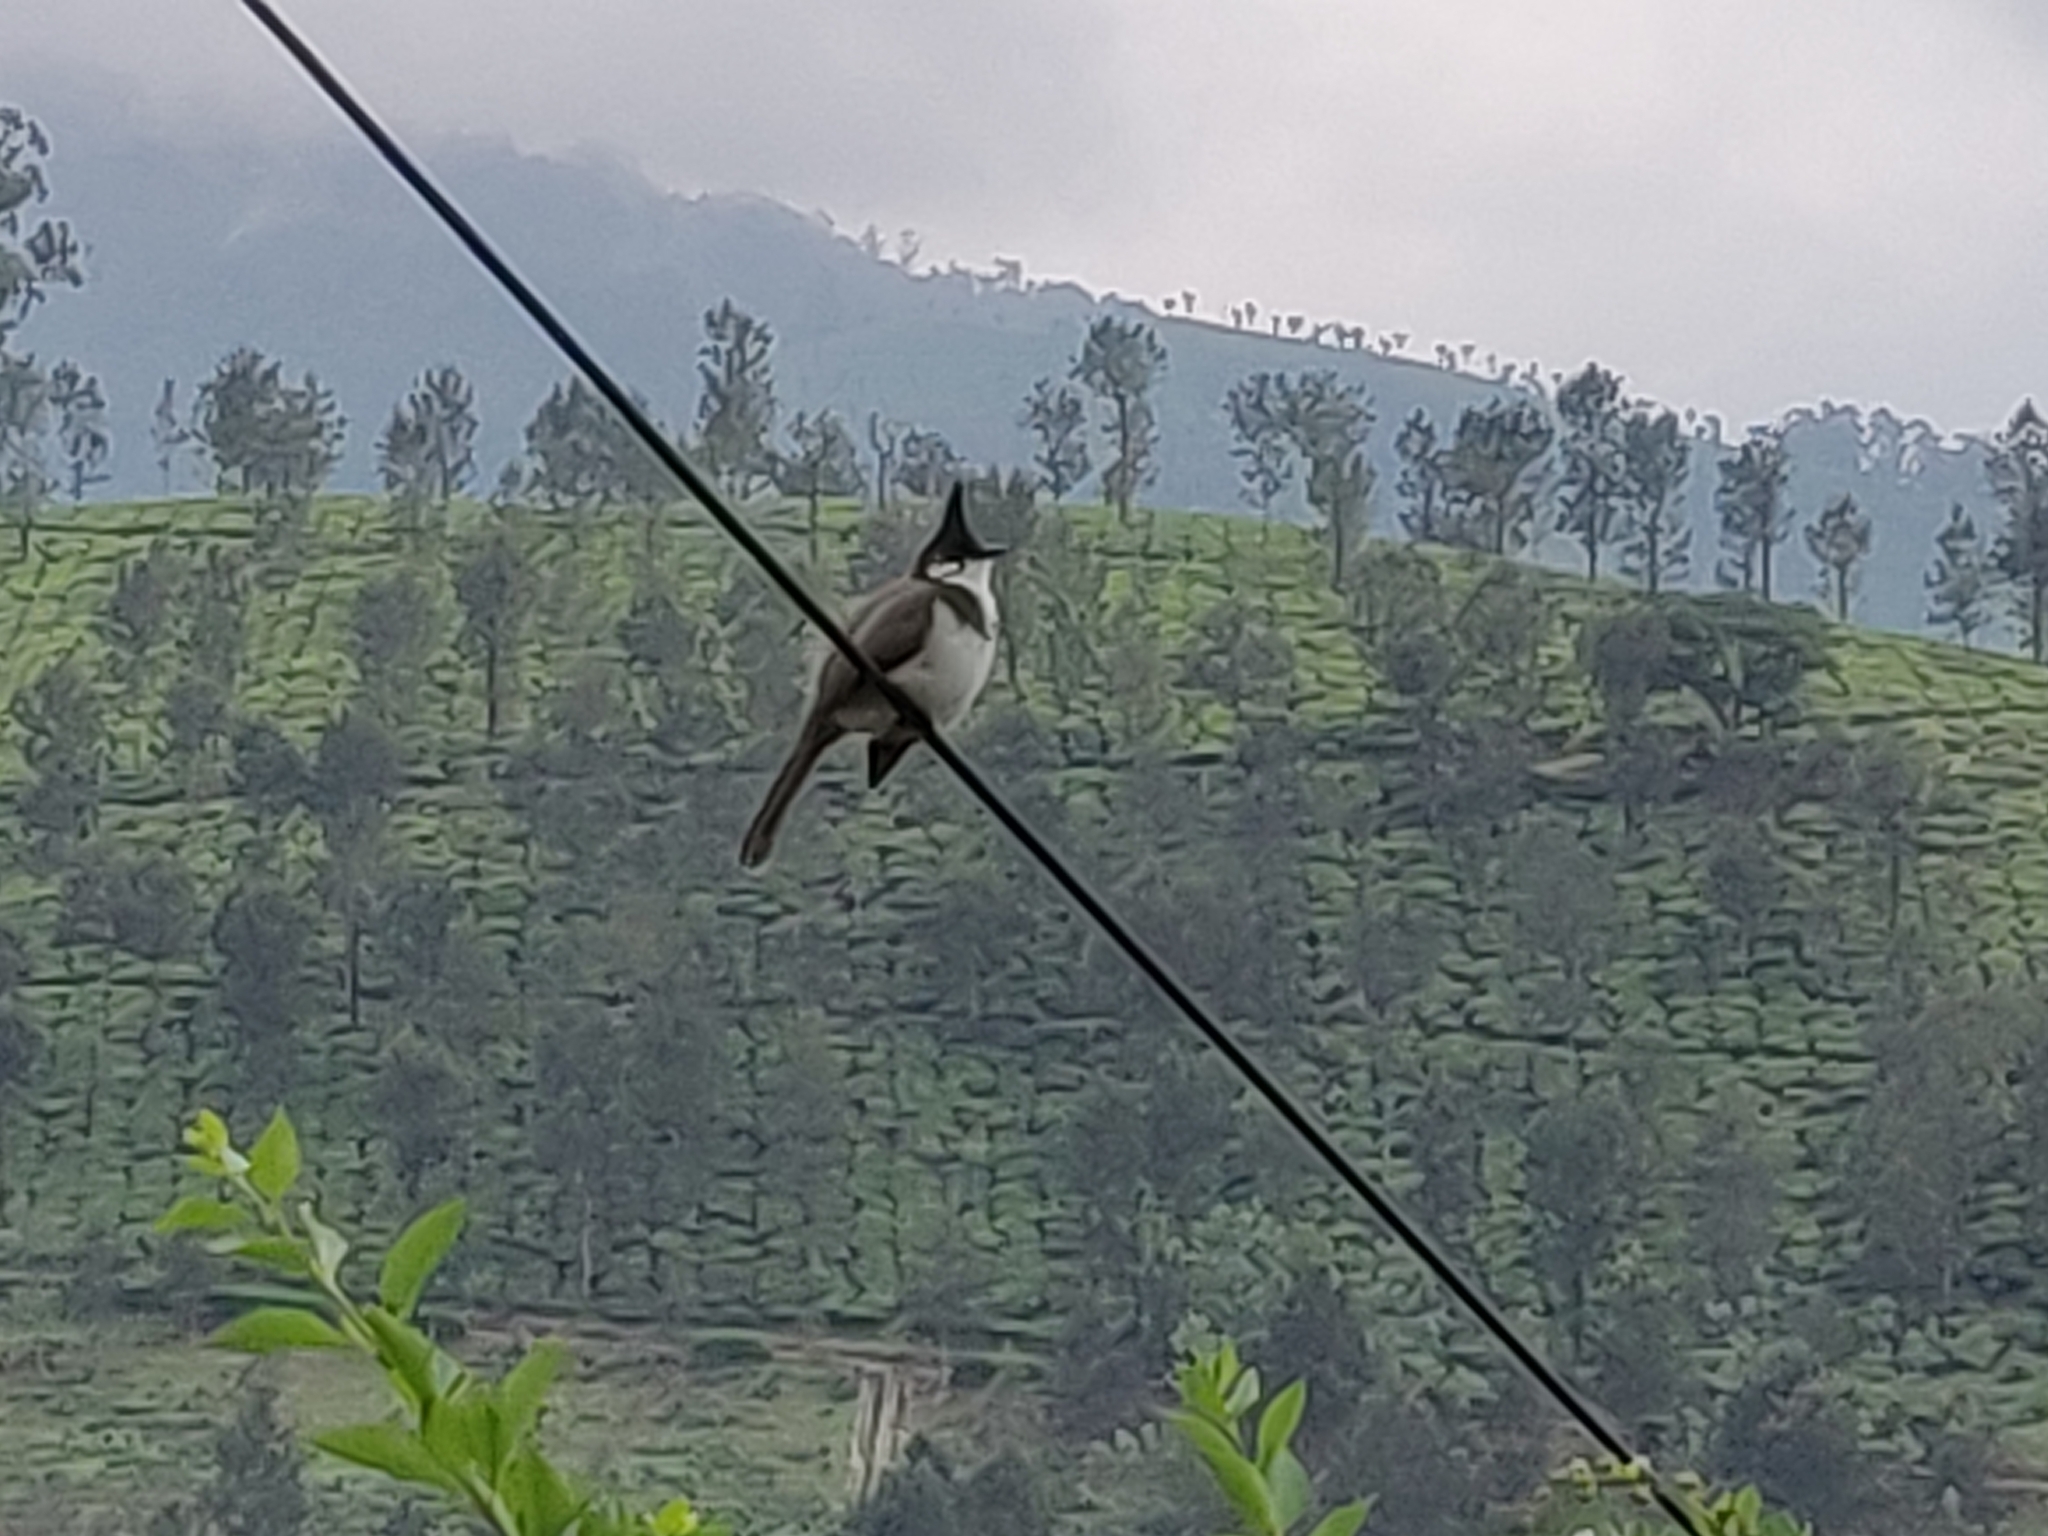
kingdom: Animalia
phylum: Chordata
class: Aves
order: Passeriformes
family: Pycnonotidae
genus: Pycnonotus
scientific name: Pycnonotus jocosus
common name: Red-whiskered bulbul
